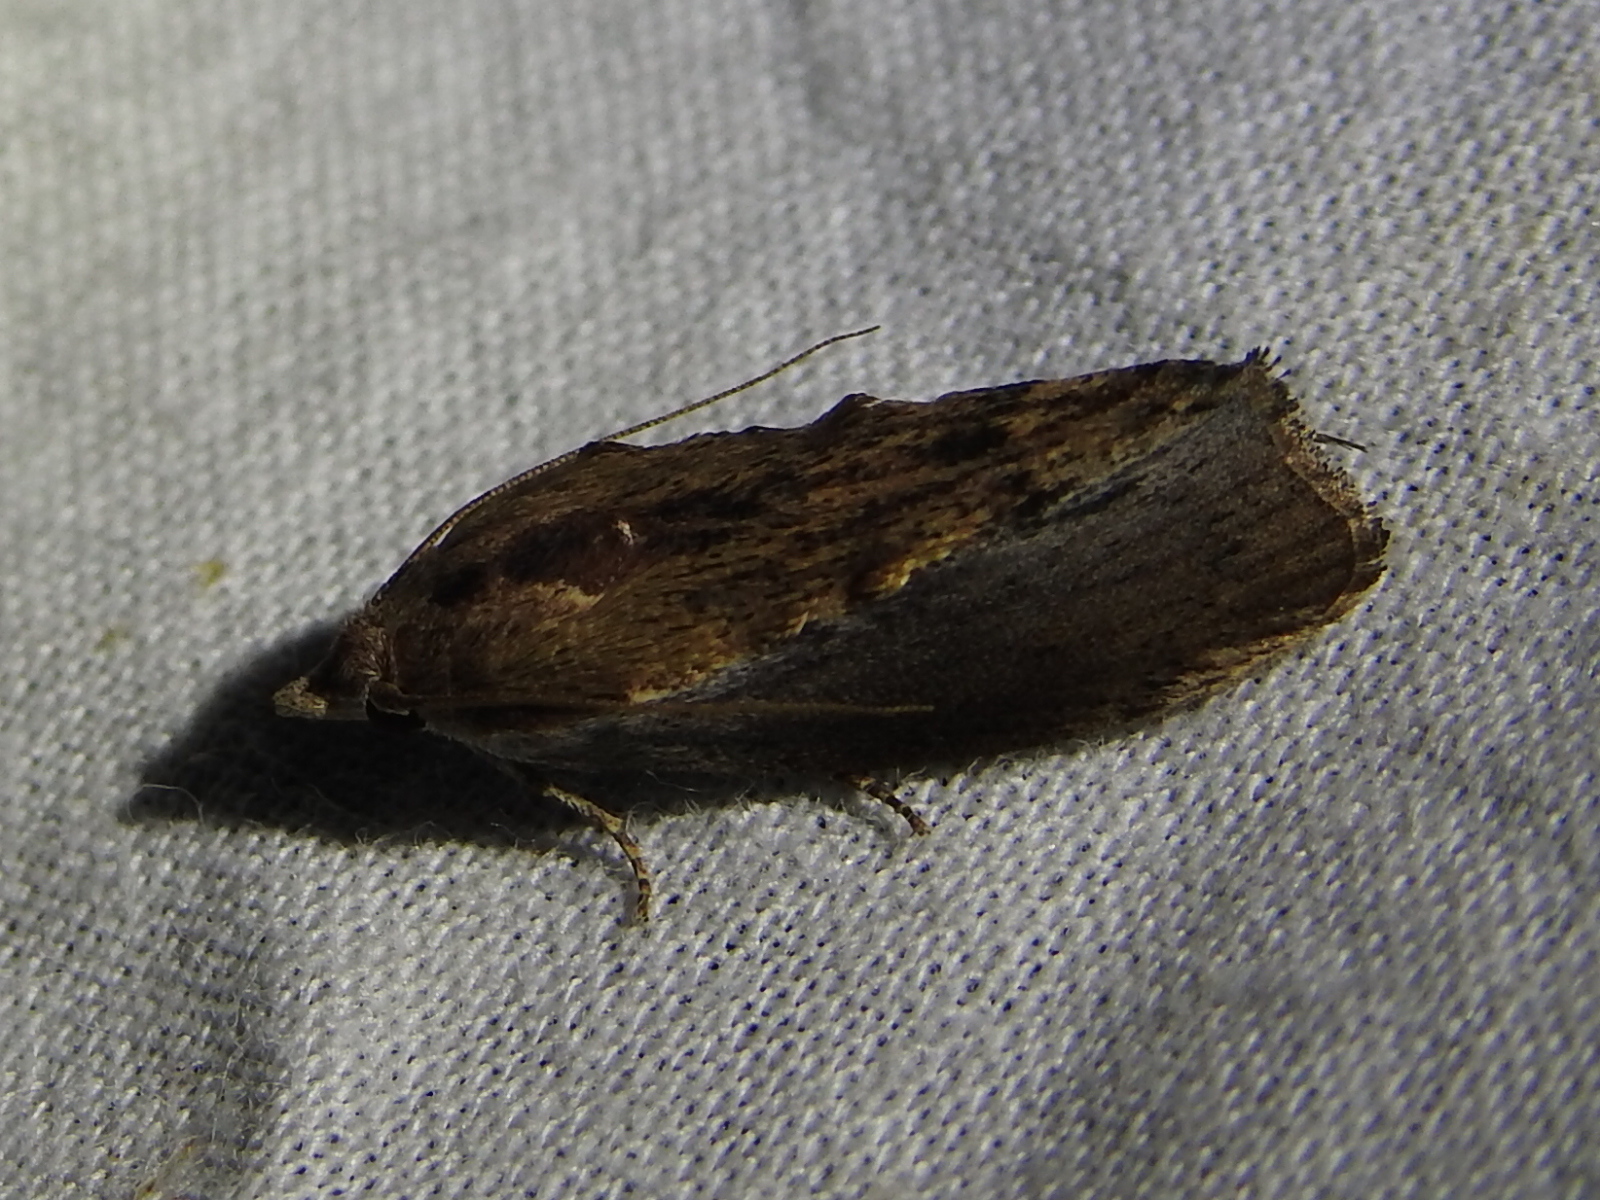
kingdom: Animalia
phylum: Arthropoda
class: Insecta
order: Lepidoptera
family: Pyralidae
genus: Galleria
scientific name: Galleria mellonella
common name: Greater wax moth
